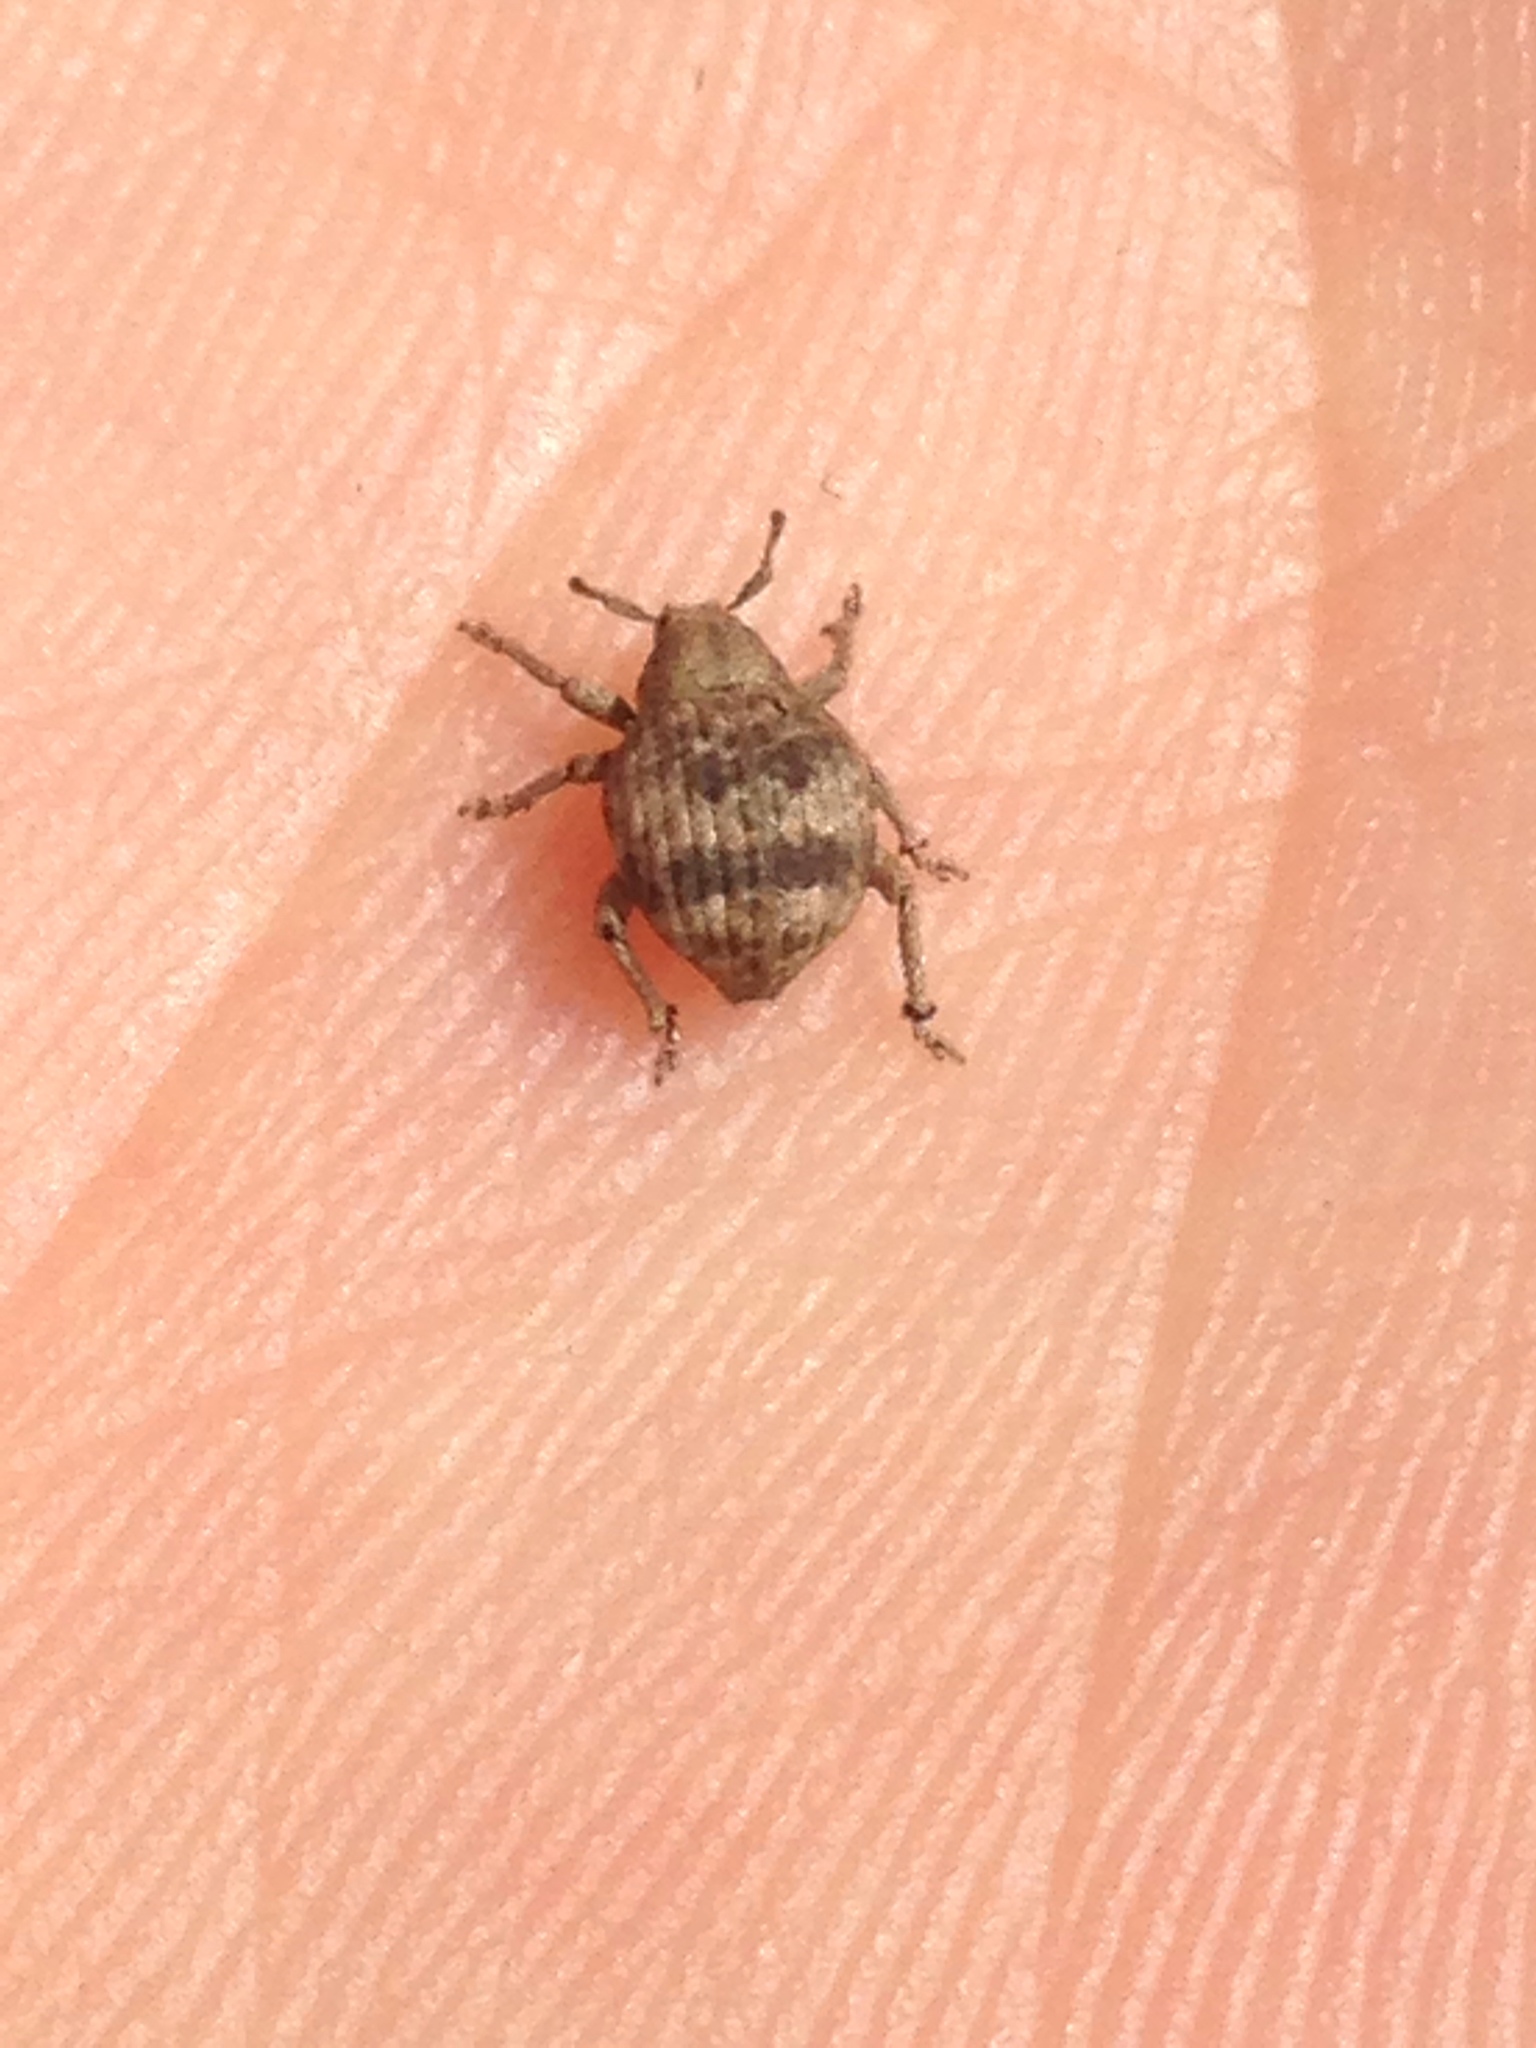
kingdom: Animalia
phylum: Arthropoda
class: Insecta
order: Coleoptera
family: Curculionidae
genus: Pseudocneorhinus
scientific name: Pseudocneorhinus bifasciatus
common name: Two-banded japanese weevil
